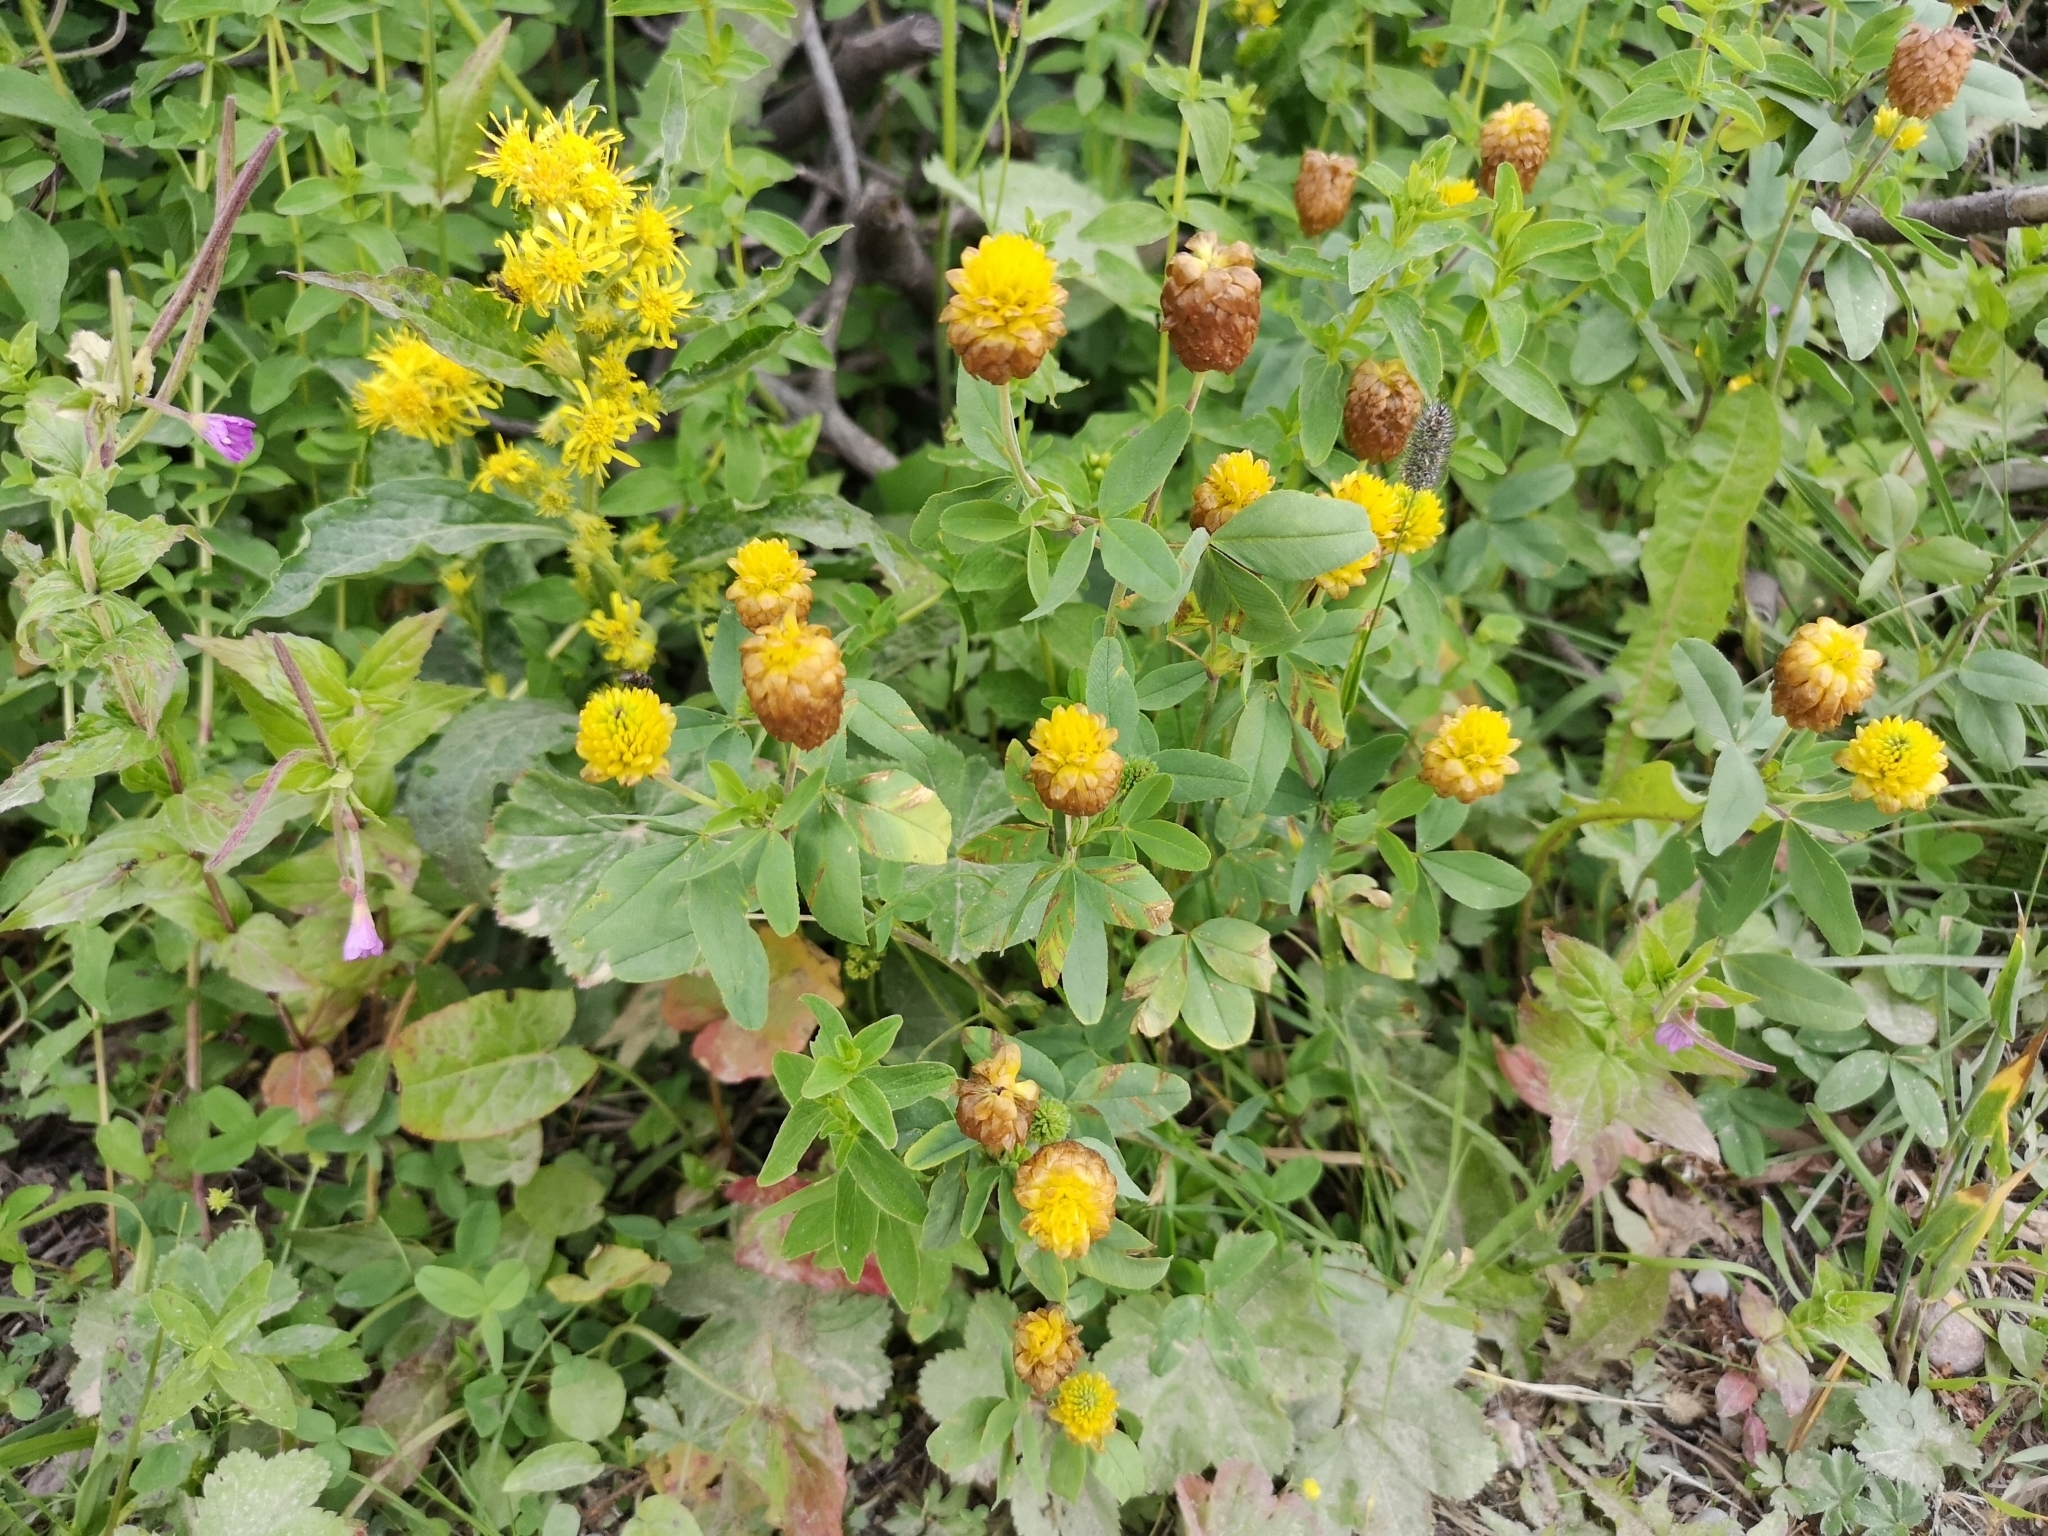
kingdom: Plantae
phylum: Tracheophyta
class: Magnoliopsida
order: Fabales
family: Fabaceae
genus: Trifolium
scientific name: Trifolium badium
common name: Brown clover
